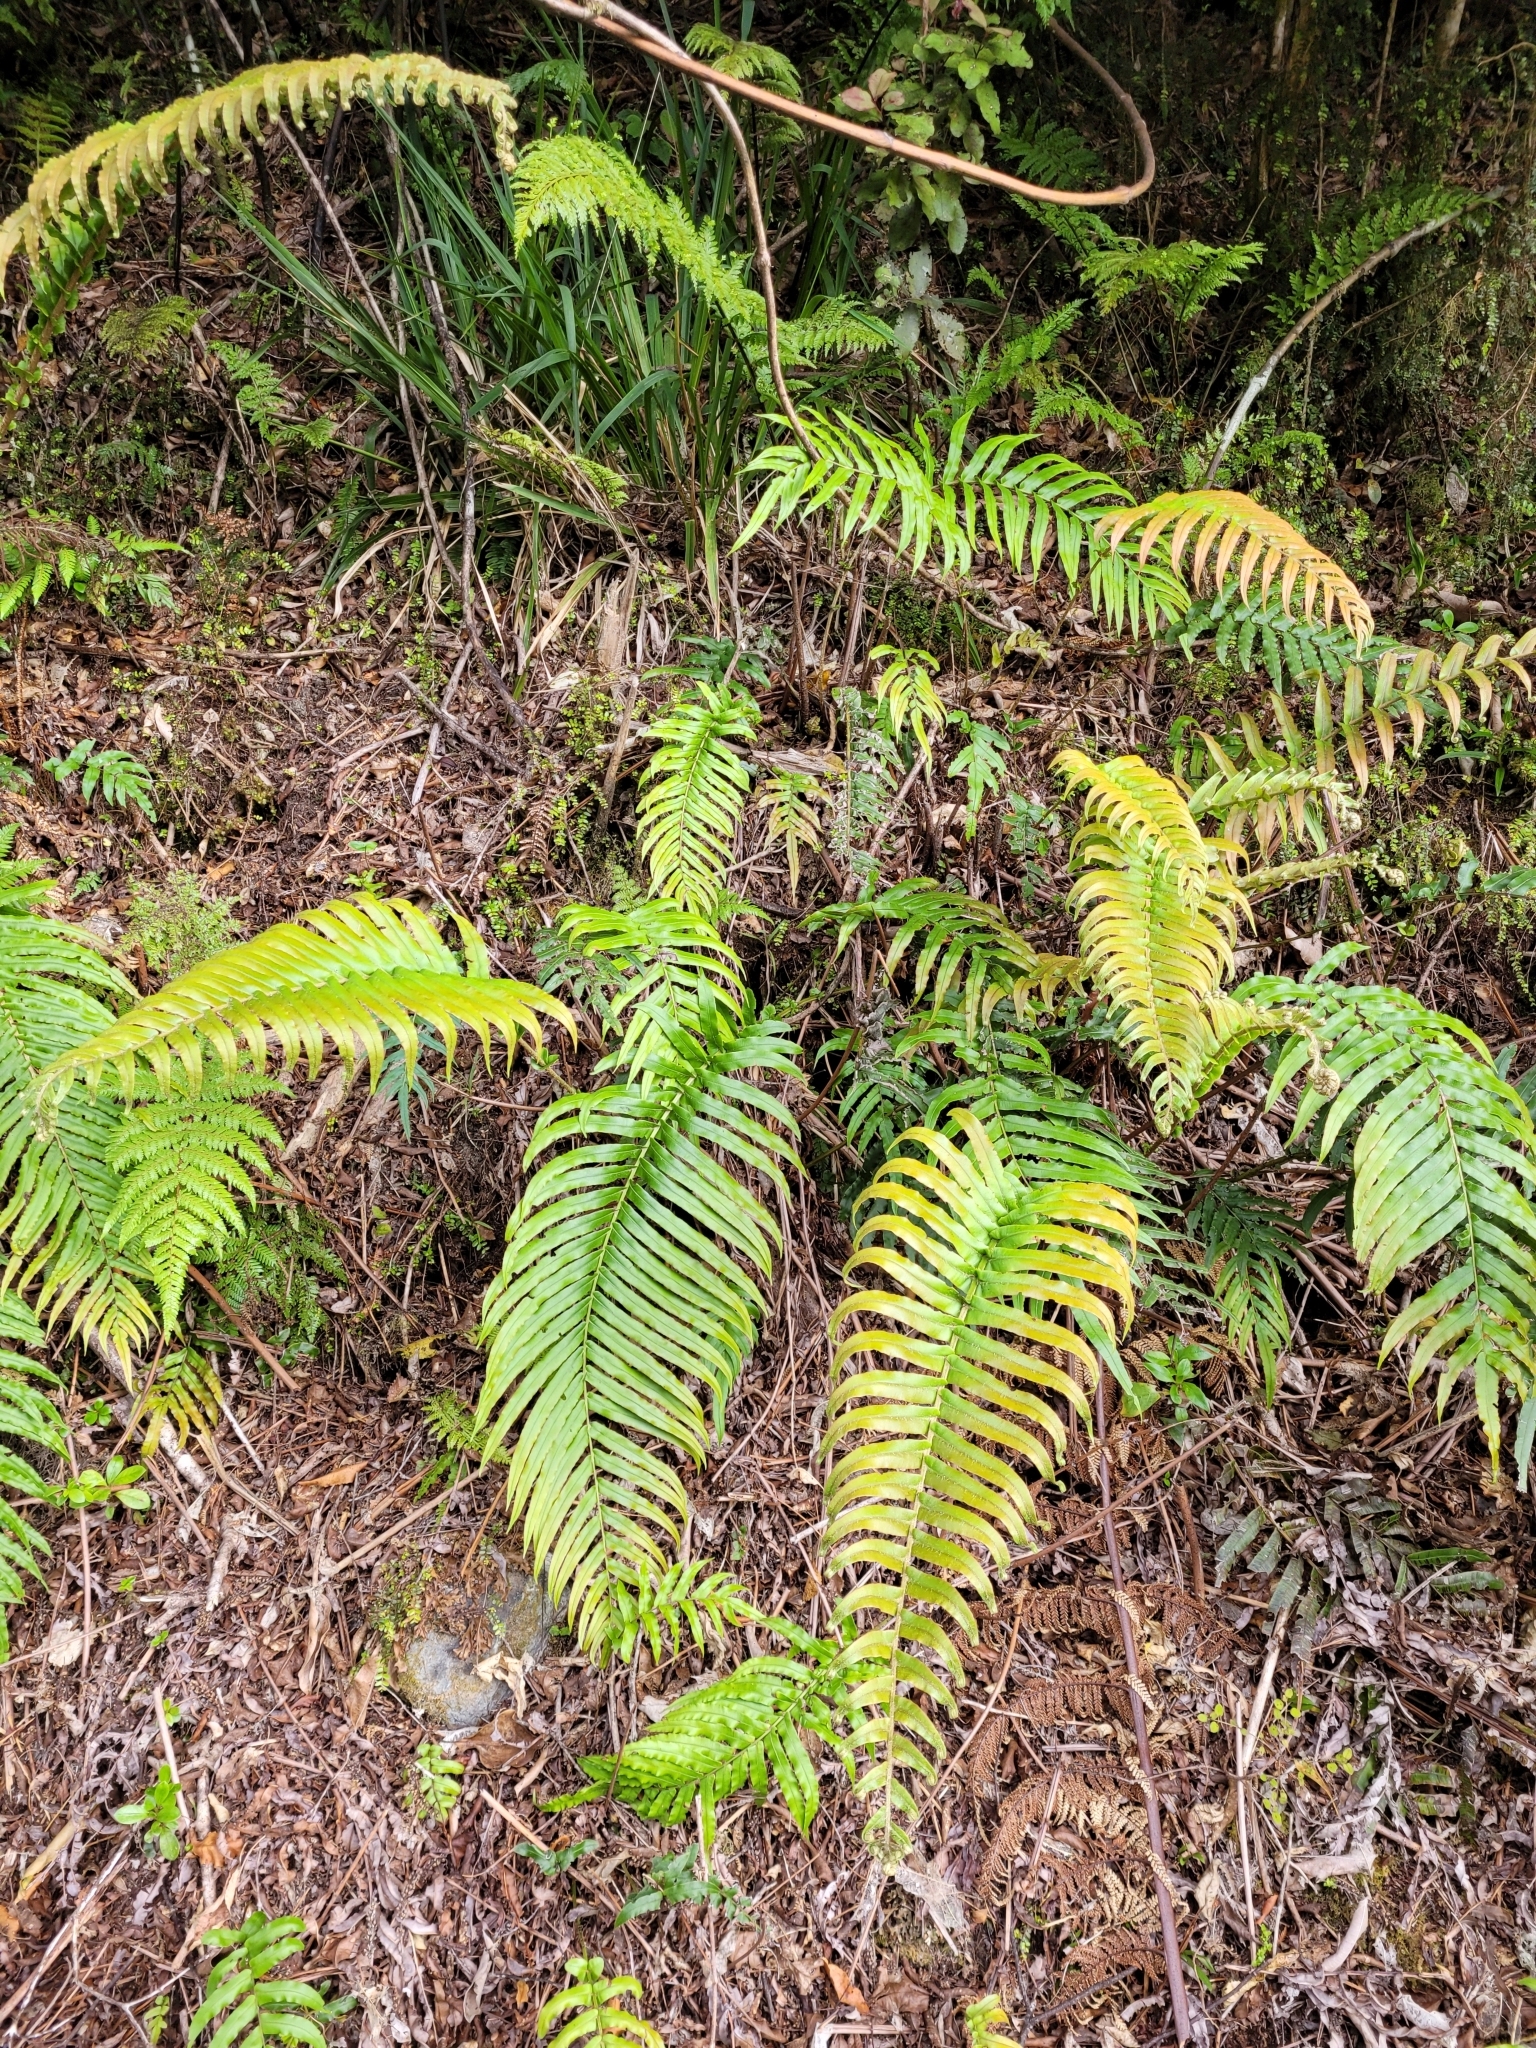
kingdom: Plantae
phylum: Tracheophyta
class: Polypodiopsida
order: Polypodiales
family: Blechnaceae
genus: Parablechnum
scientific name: Parablechnum novae-zelandiae
